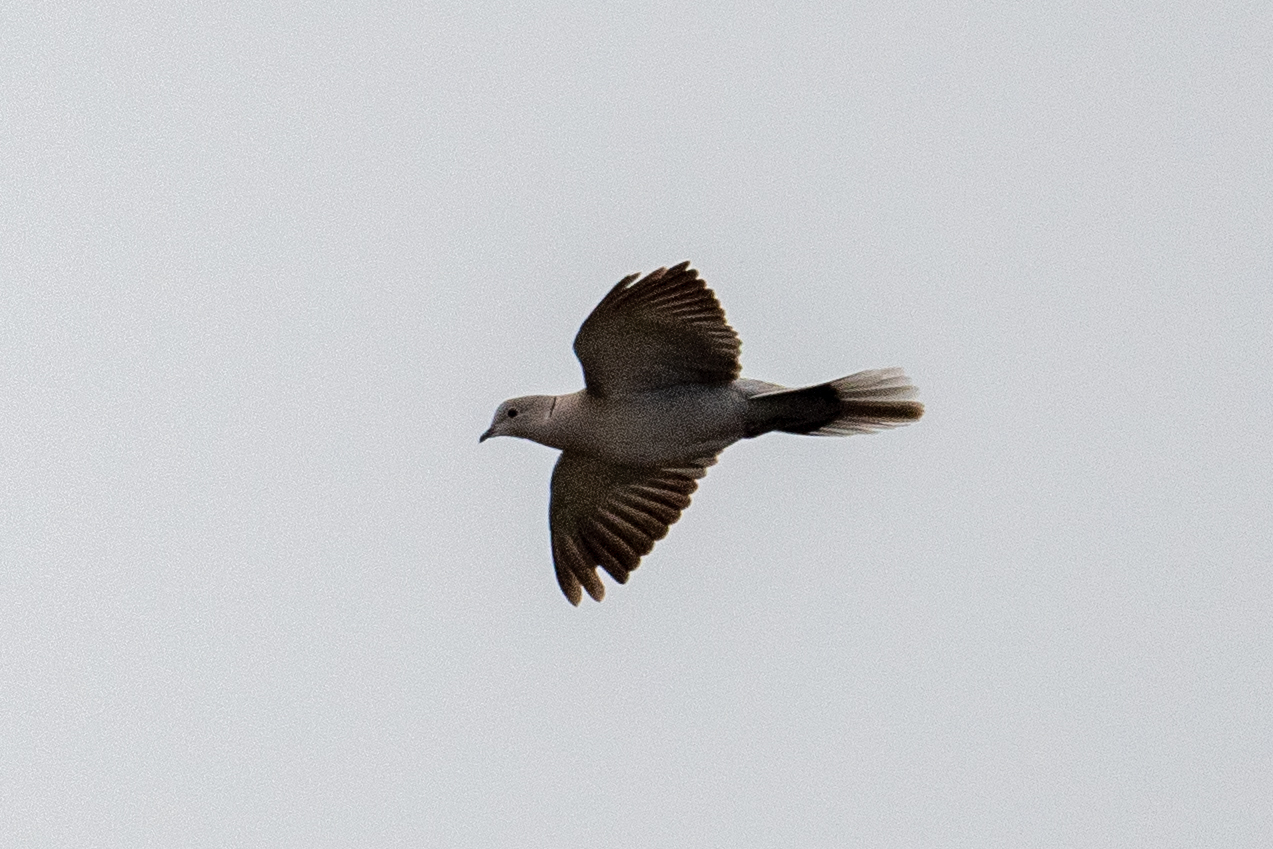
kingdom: Animalia
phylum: Chordata
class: Aves
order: Columbiformes
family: Columbidae
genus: Streptopelia
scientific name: Streptopelia decaocto
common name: Eurasian collared dove
